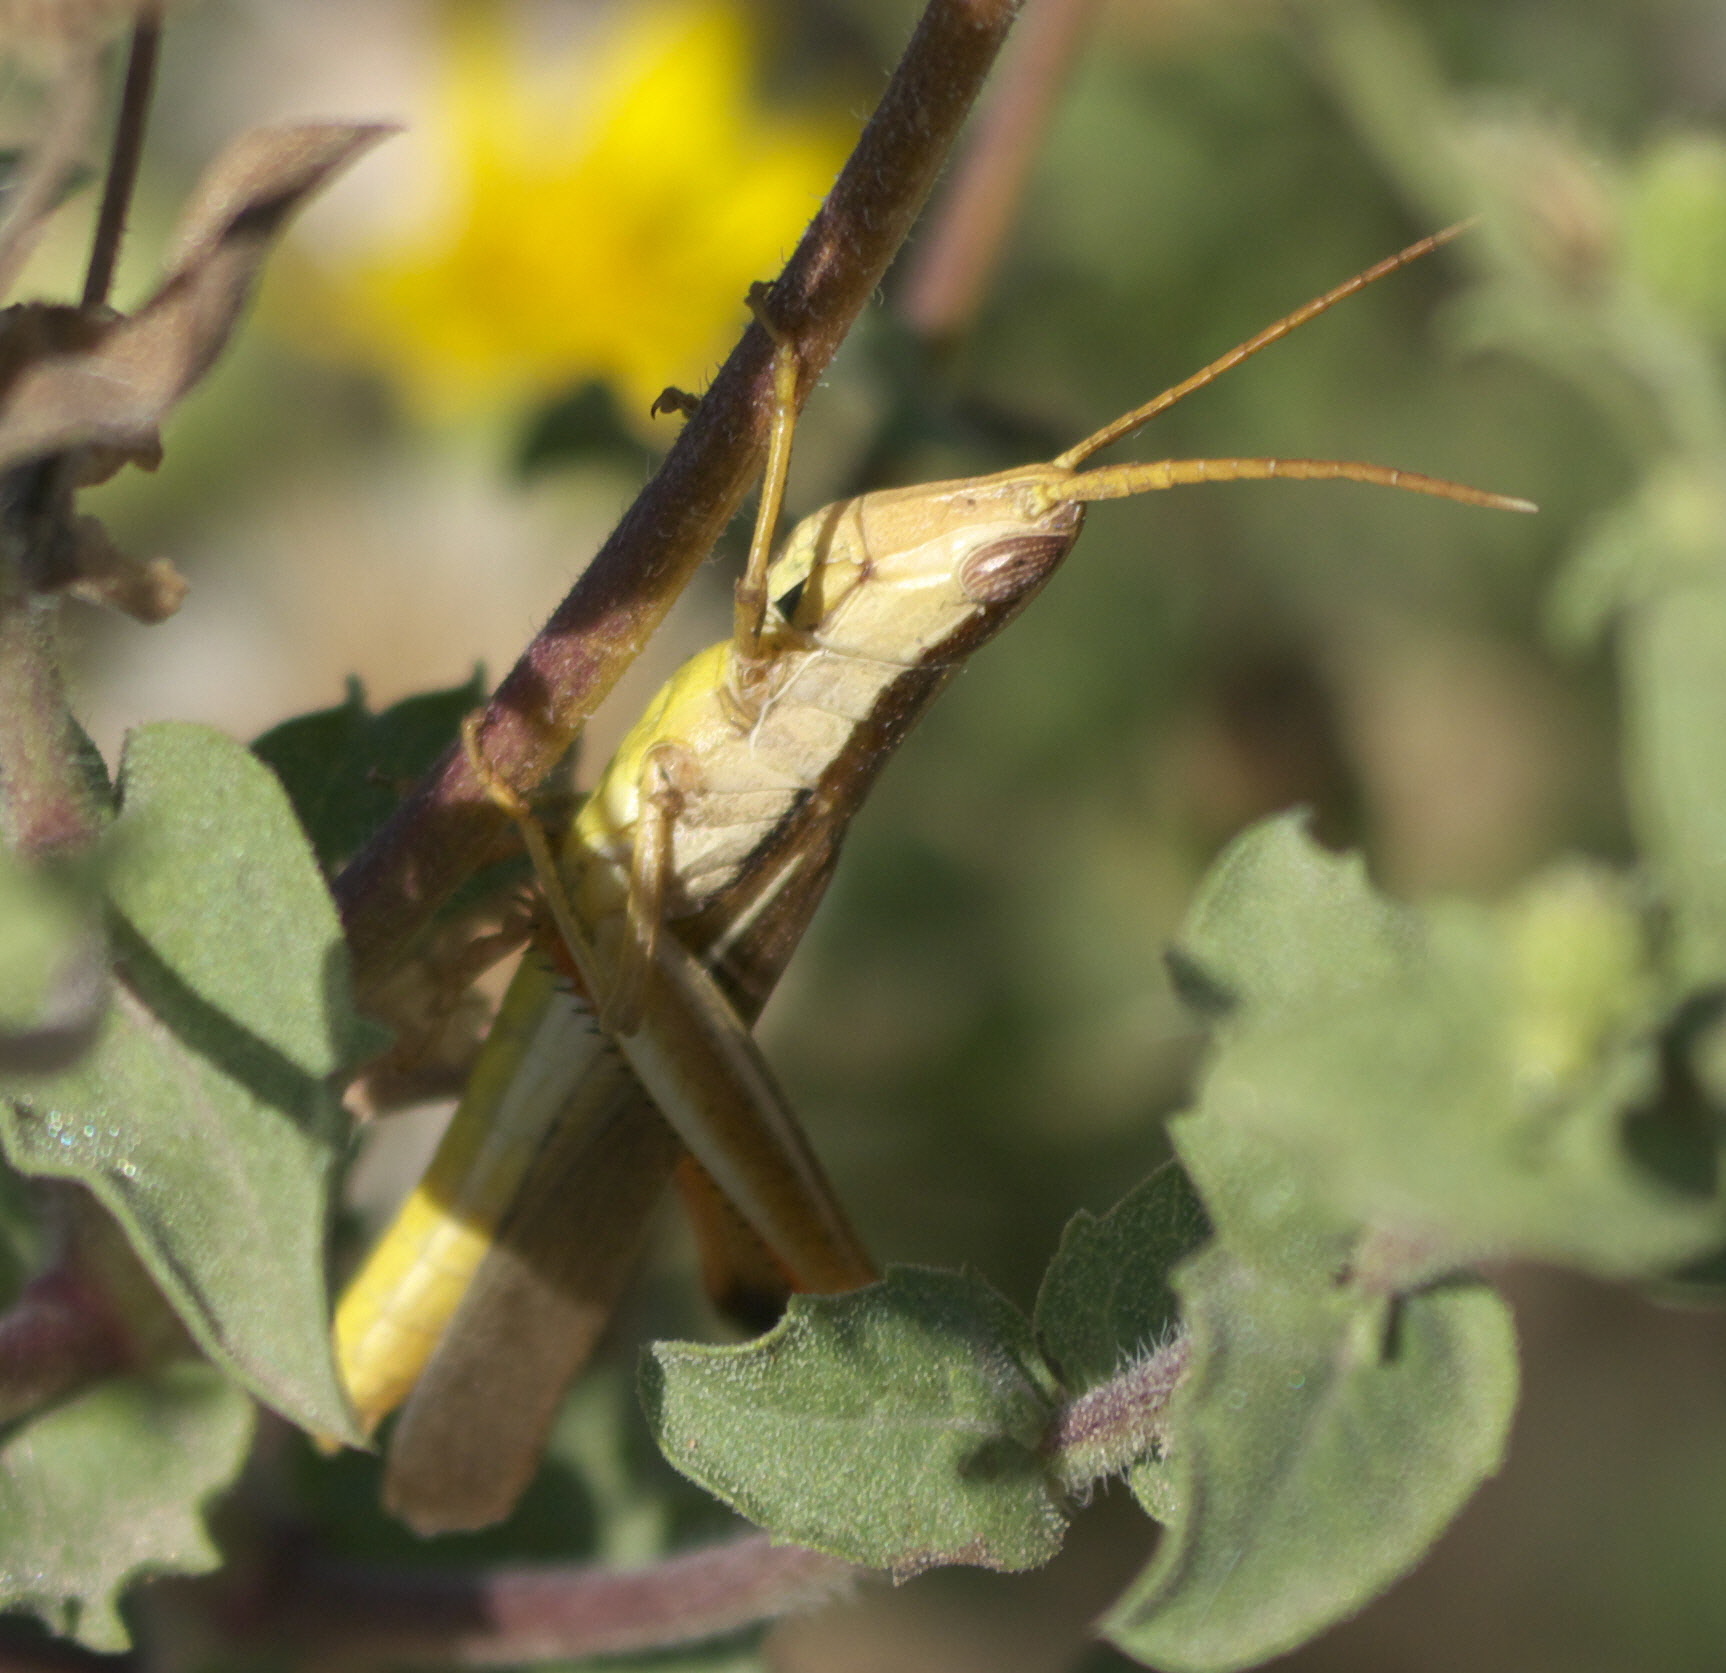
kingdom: Animalia
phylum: Arthropoda
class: Insecta
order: Orthoptera
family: Acrididae
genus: Mermiria
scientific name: Mermiria bivittata
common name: Two-striped mermiria grasshopper
